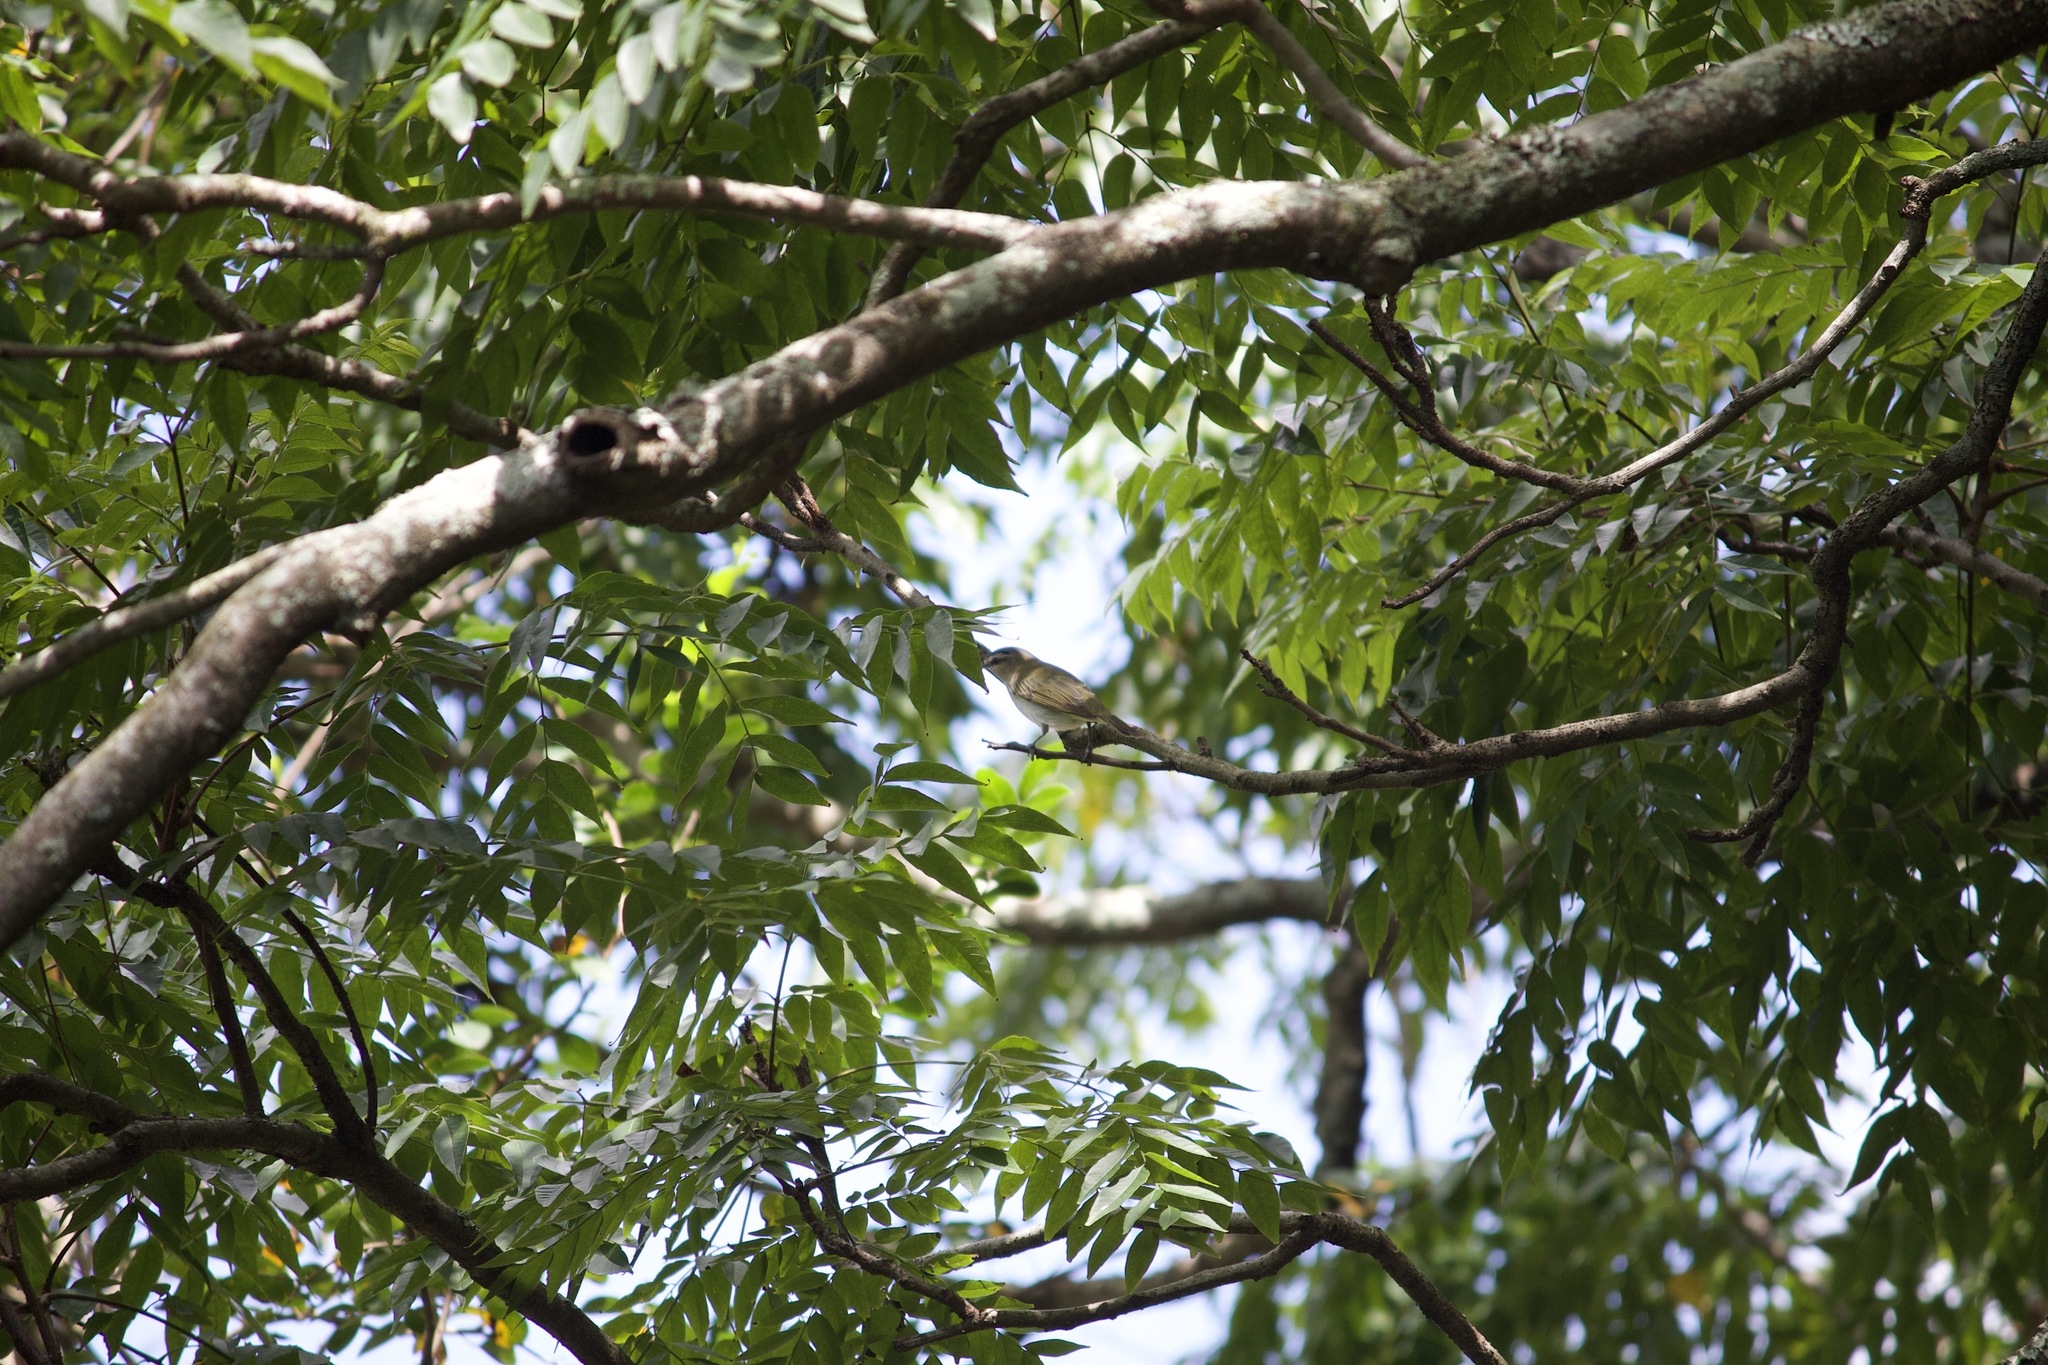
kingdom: Animalia
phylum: Chordata
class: Aves
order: Passeriformes
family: Vireonidae
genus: Vireo
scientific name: Vireo olivaceus
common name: Red-eyed vireo
